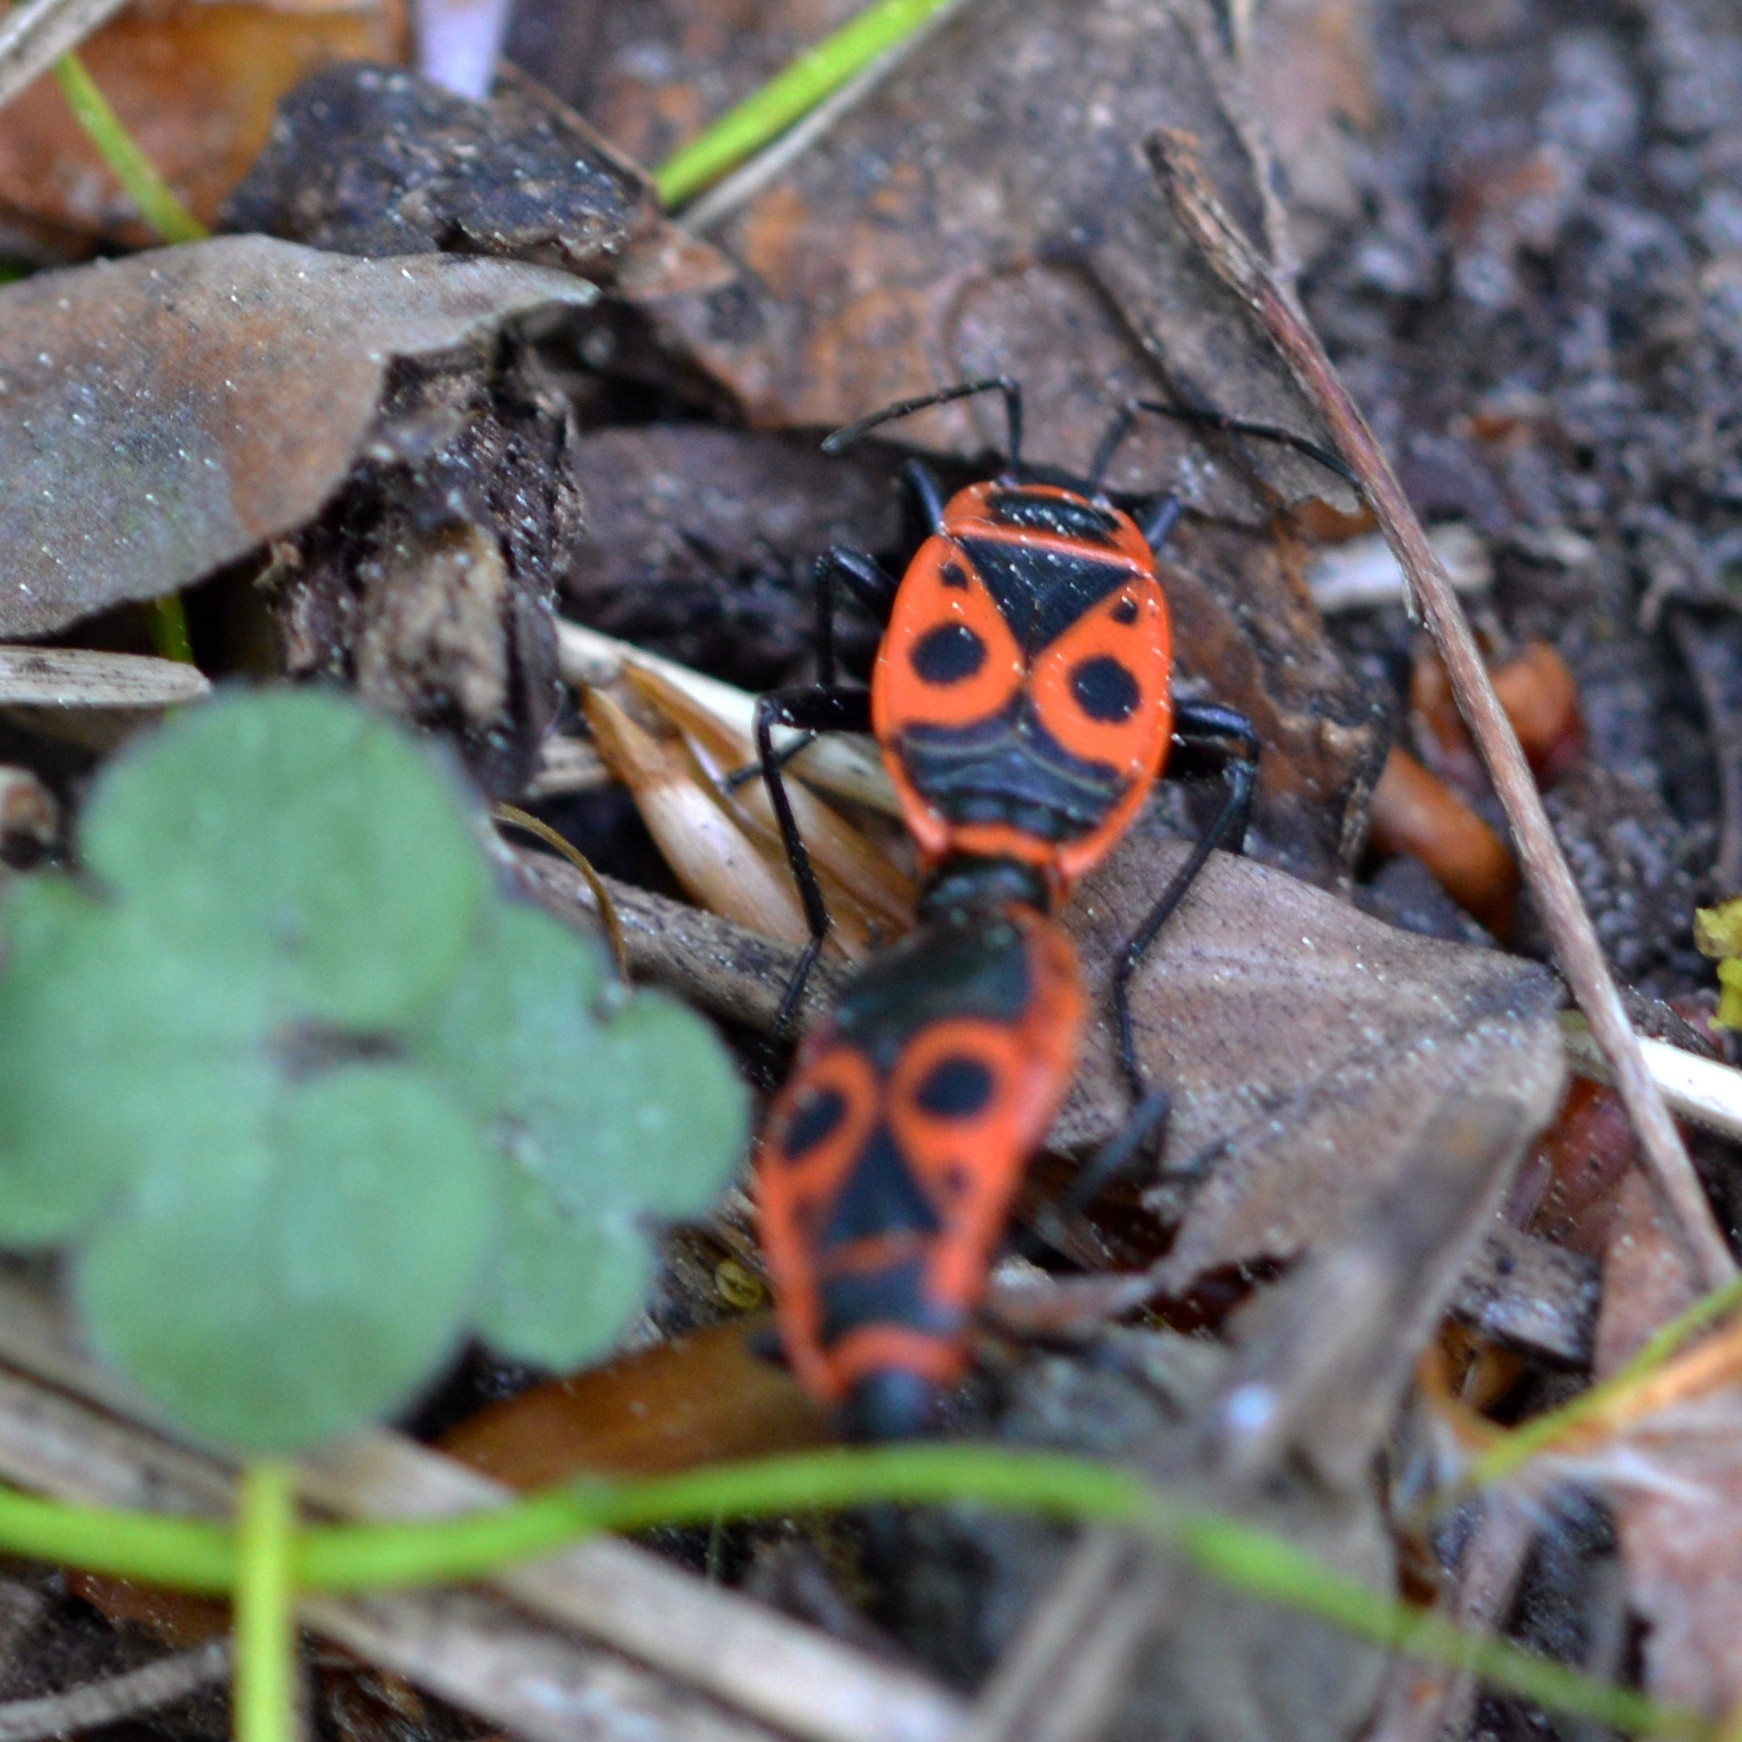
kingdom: Animalia
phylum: Arthropoda
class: Insecta
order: Hemiptera
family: Pyrrhocoridae
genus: Pyrrhocoris
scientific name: Pyrrhocoris apterus
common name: Firebug
